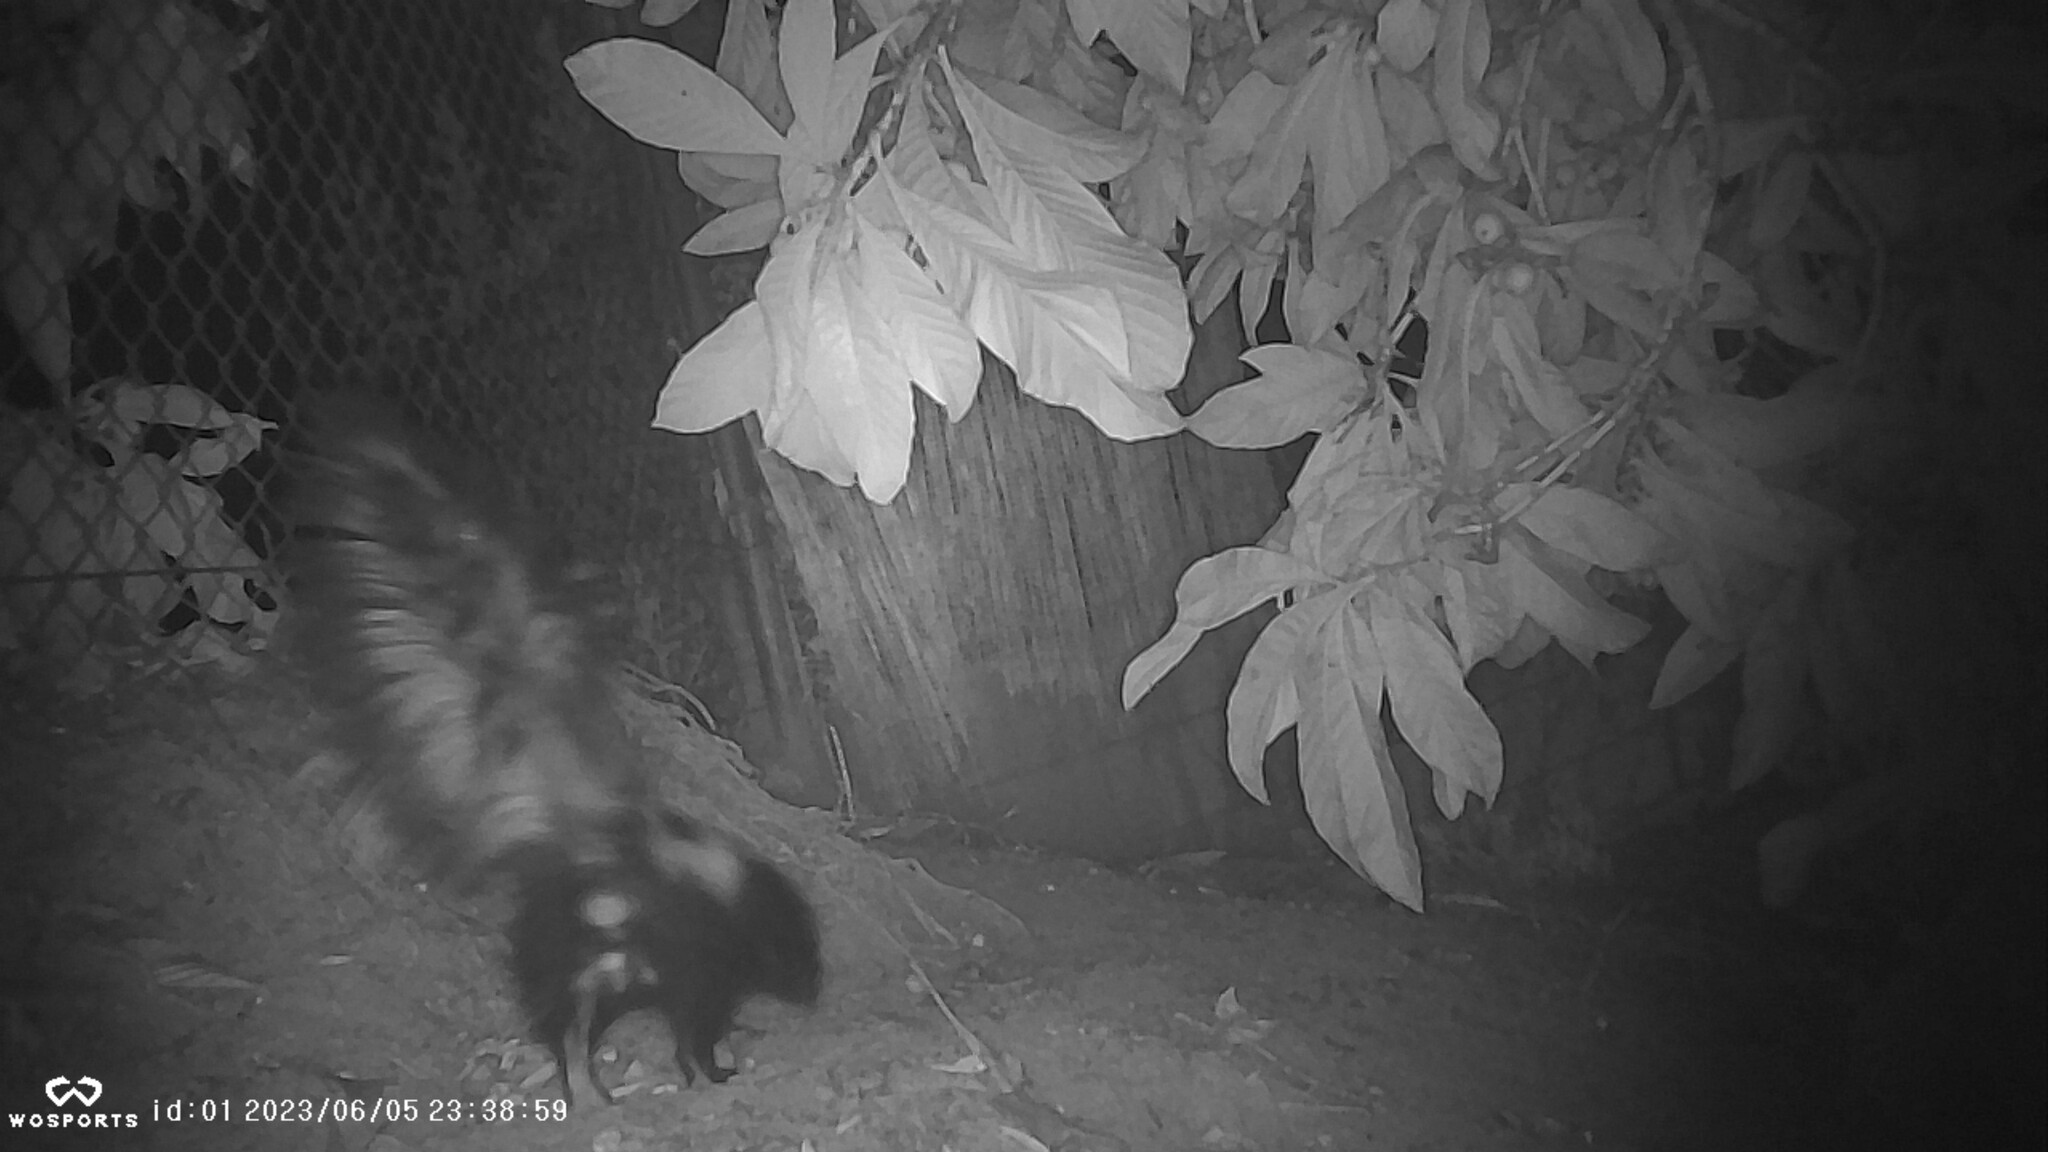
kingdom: Animalia
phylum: Chordata
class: Mammalia
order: Carnivora
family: Mephitidae
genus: Mephitis
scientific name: Mephitis mephitis
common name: Striped skunk
